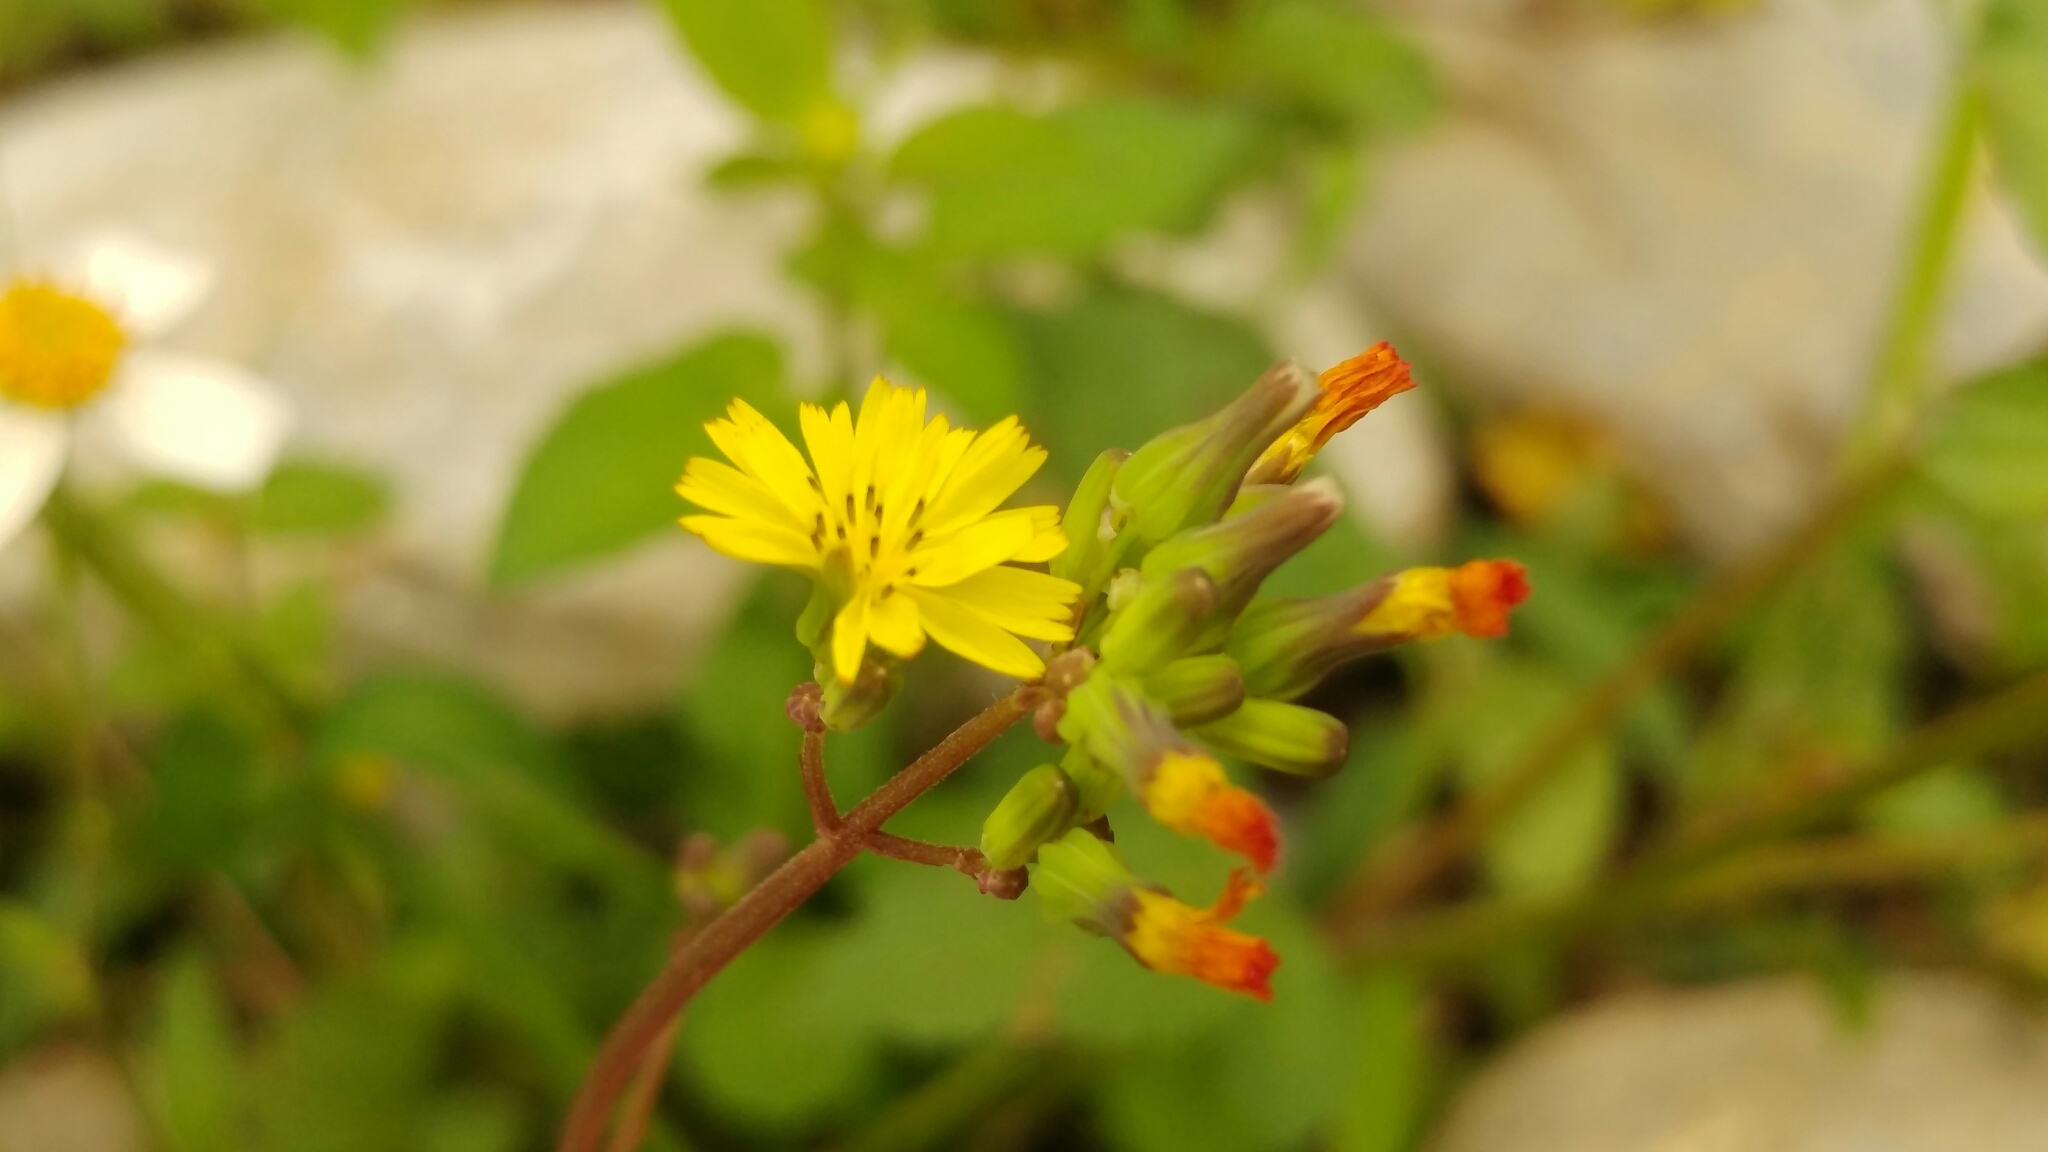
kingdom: Plantae
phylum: Tracheophyta
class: Magnoliopsida
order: Asterales
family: Asteraceae
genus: Youngia
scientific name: Youngia japonica
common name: Oriental false hawksbeard
